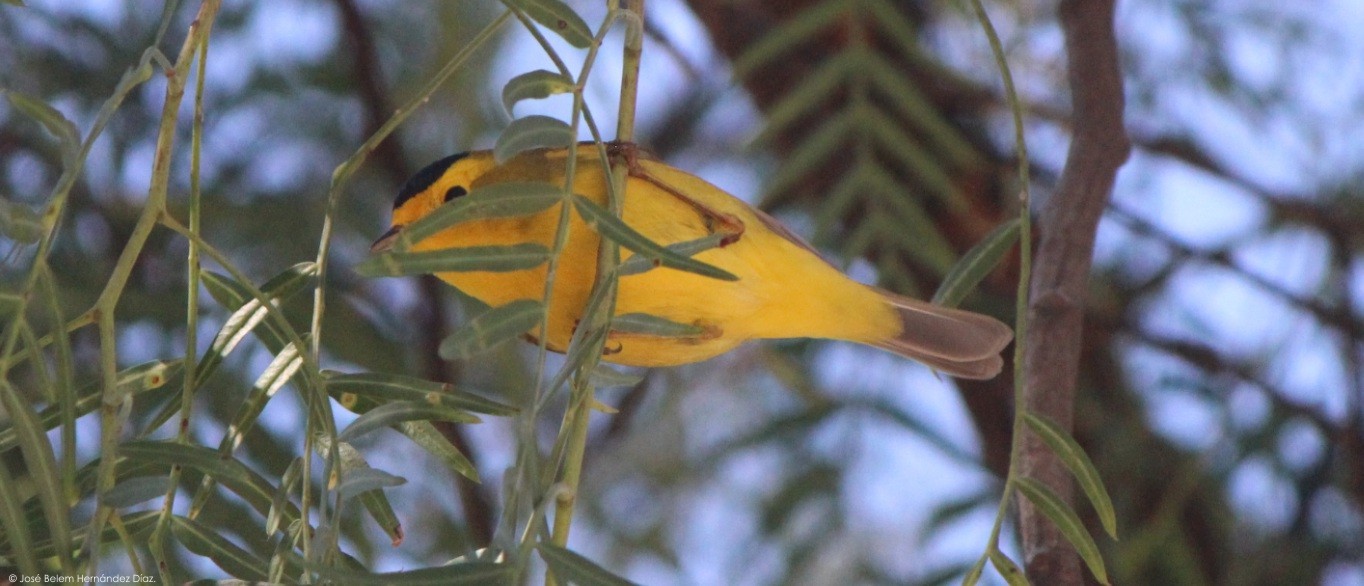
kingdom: Animalia
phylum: Chordata
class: Aves
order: Passeriformes
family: Parulidae
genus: Cardellina
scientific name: Cardellina pusilla
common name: Wilson's warbler
